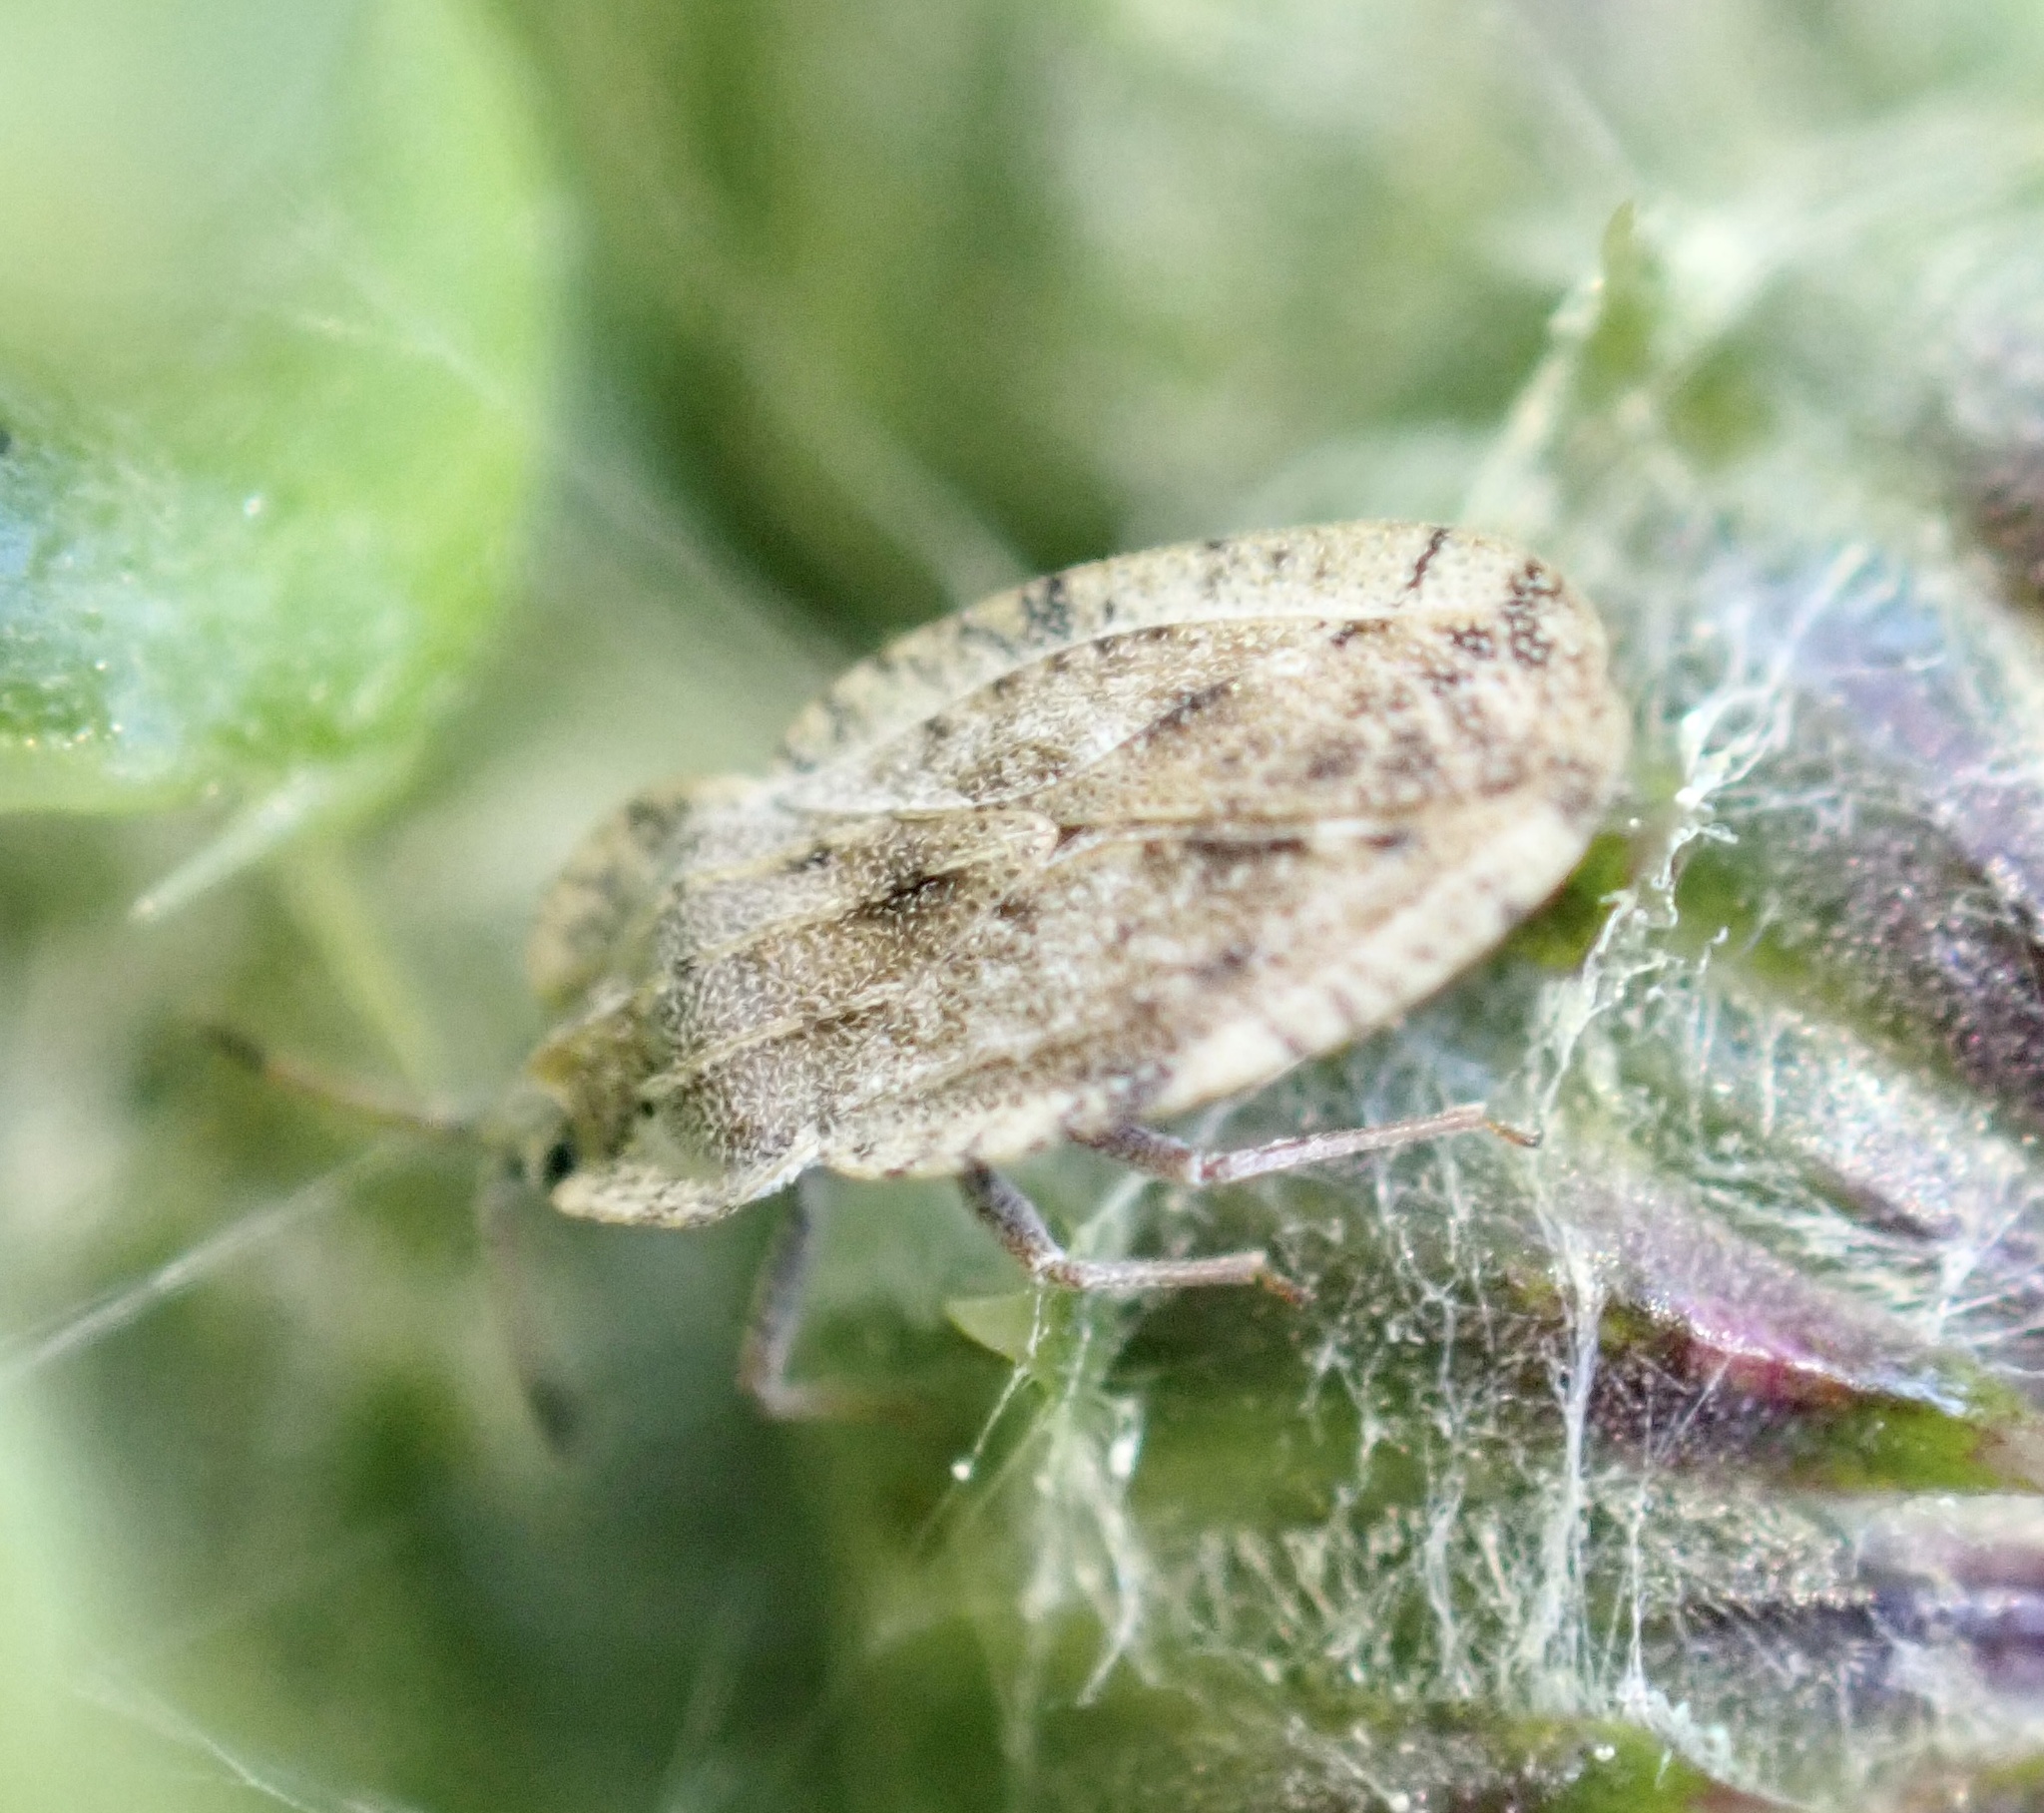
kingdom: Animalia
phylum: Arthropoda
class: Insecta
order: Hemiptera
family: Tingidae
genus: Tingis
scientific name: Tingis ampliata
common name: Creeping thistle lacebug
